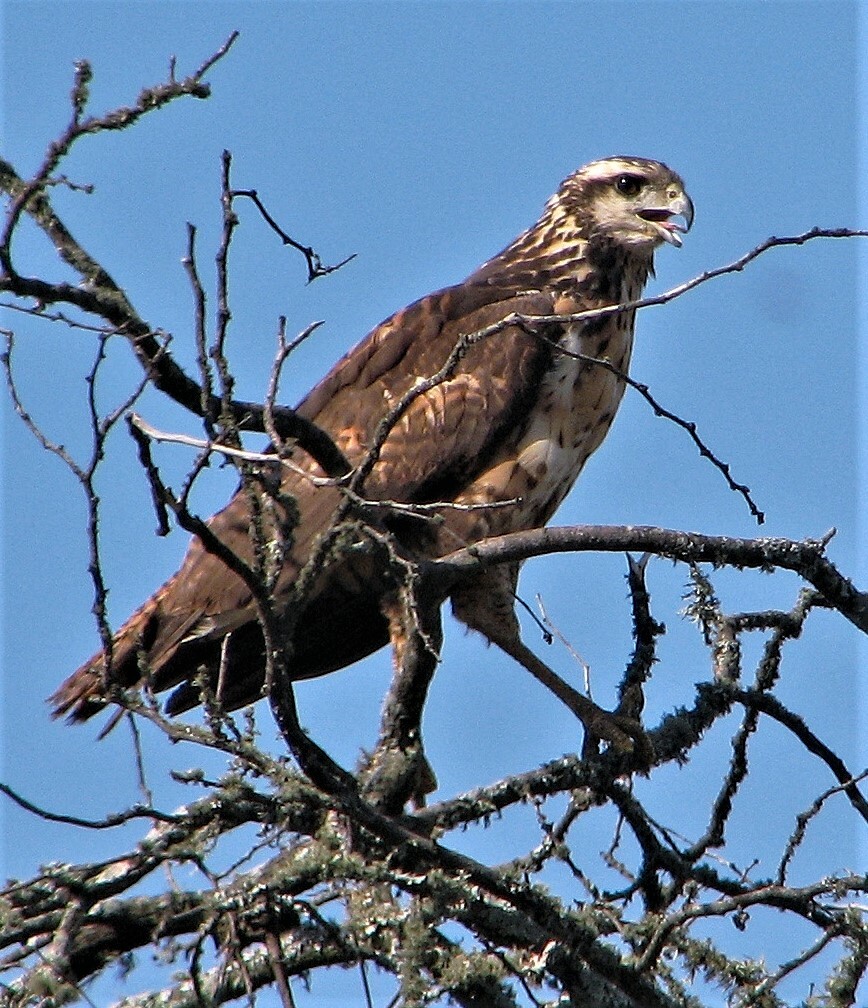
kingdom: Animalia
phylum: Chordata
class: Aves
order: Accipitriformes
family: Accipitridae
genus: Buteogallus
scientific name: Buteogallus urubitinga
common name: Great black hawk
